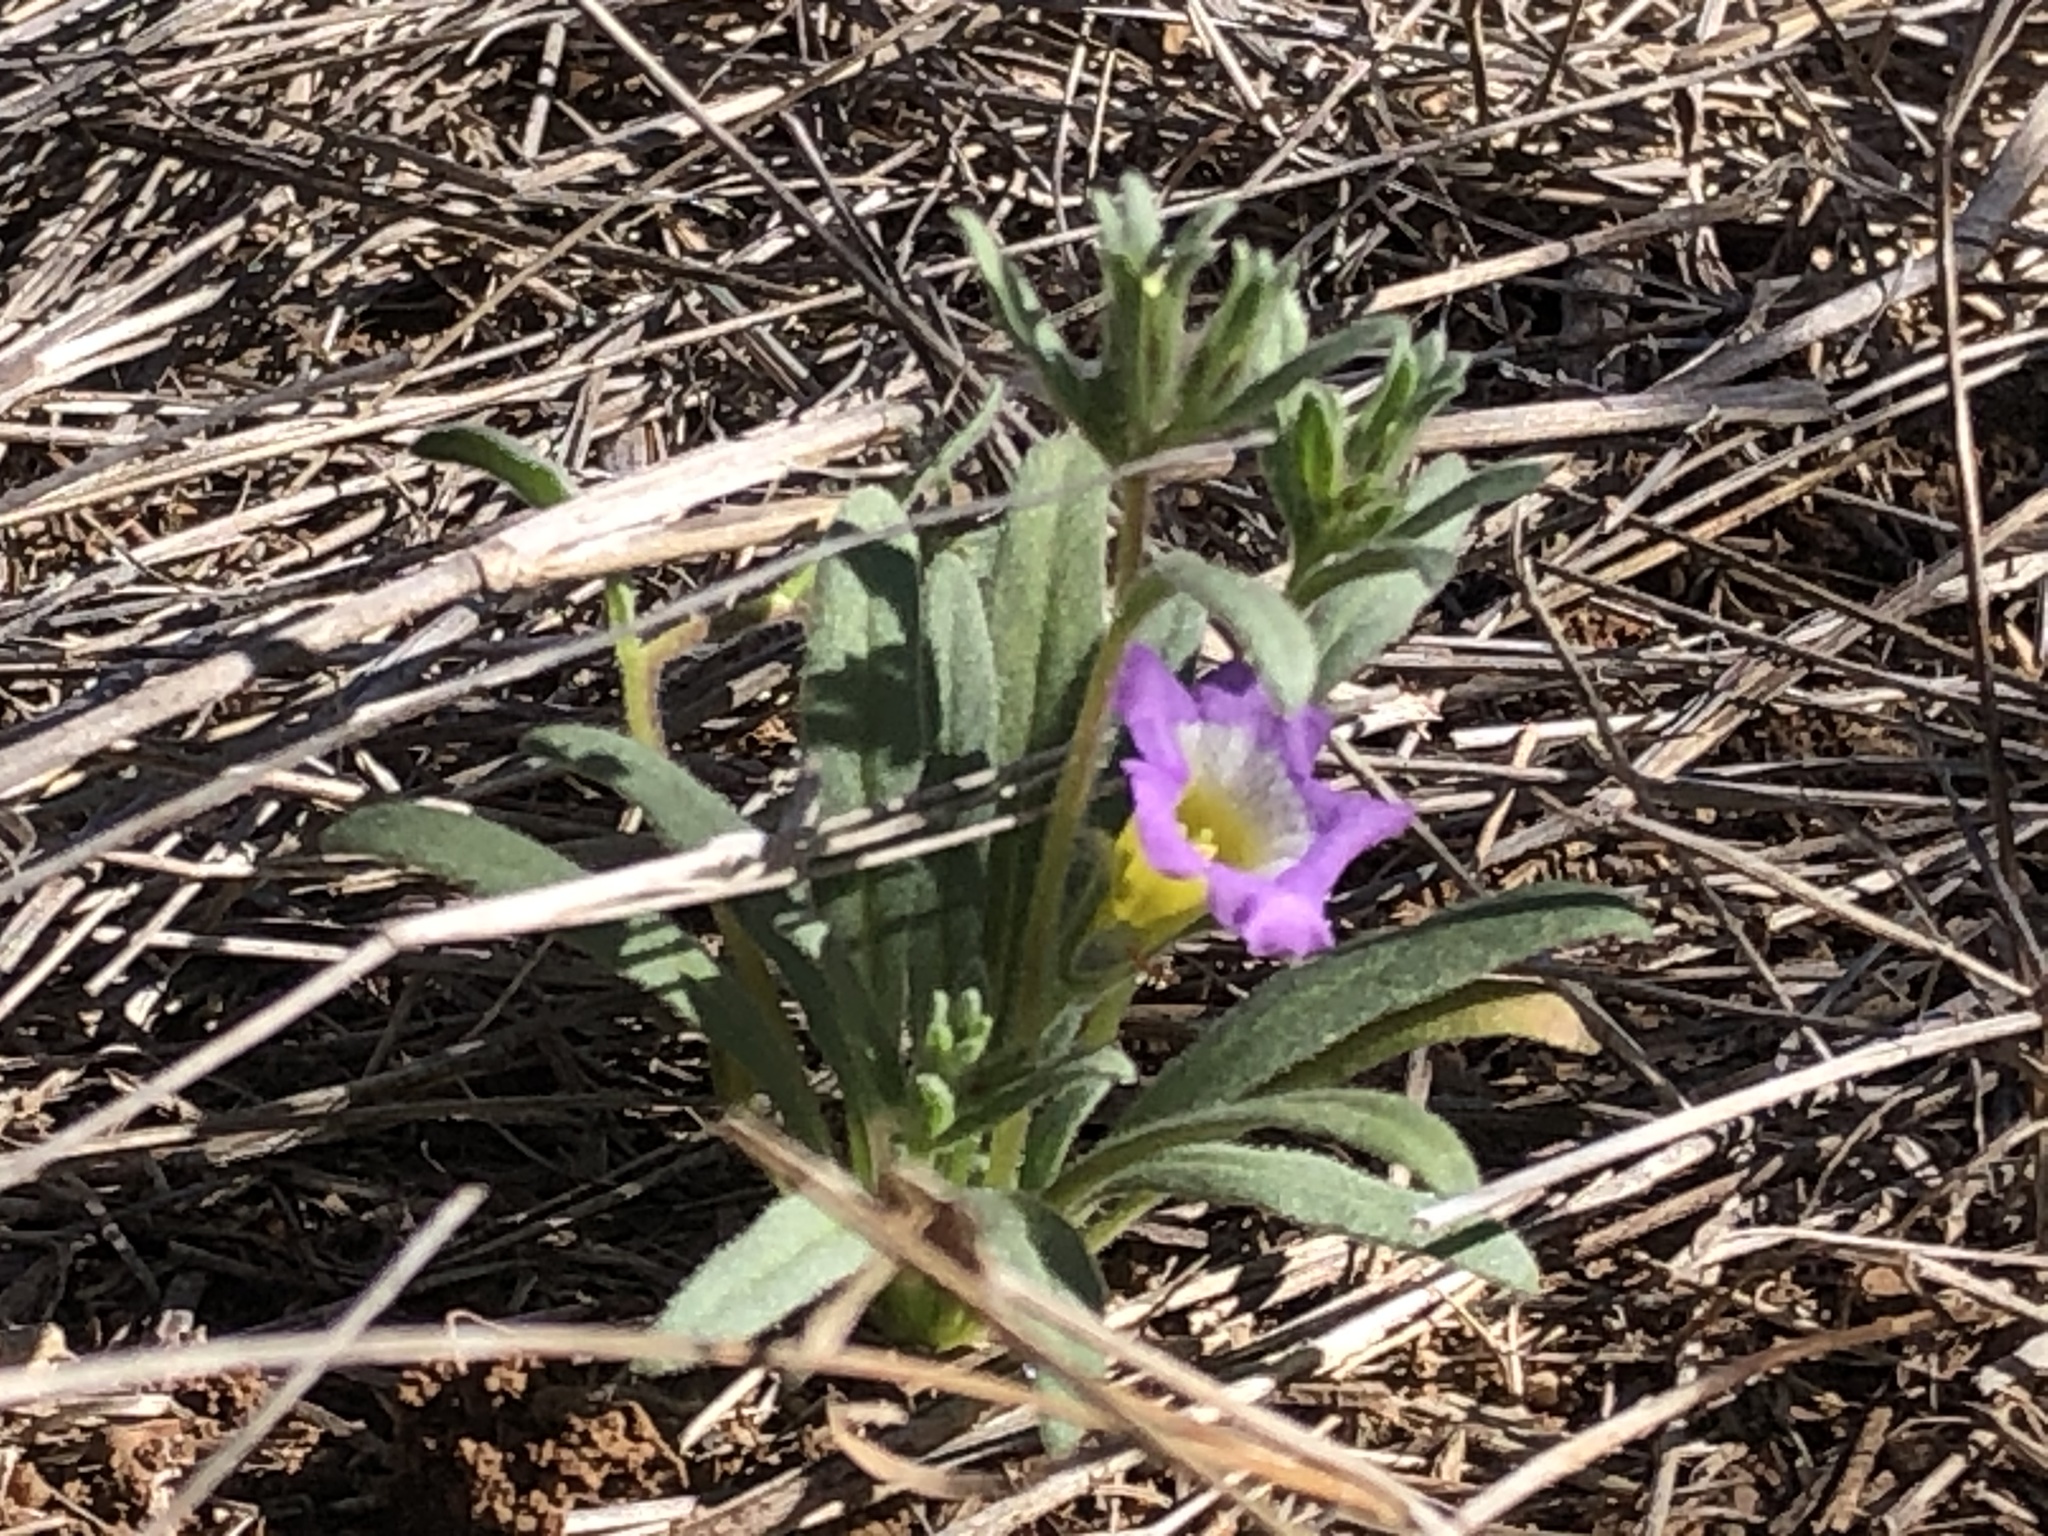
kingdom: Plantae
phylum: Tracheophyta
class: Magnoliopsida
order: Boraginales
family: Namaceae
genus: Nama
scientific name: Nama hispida
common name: Bristly nama
